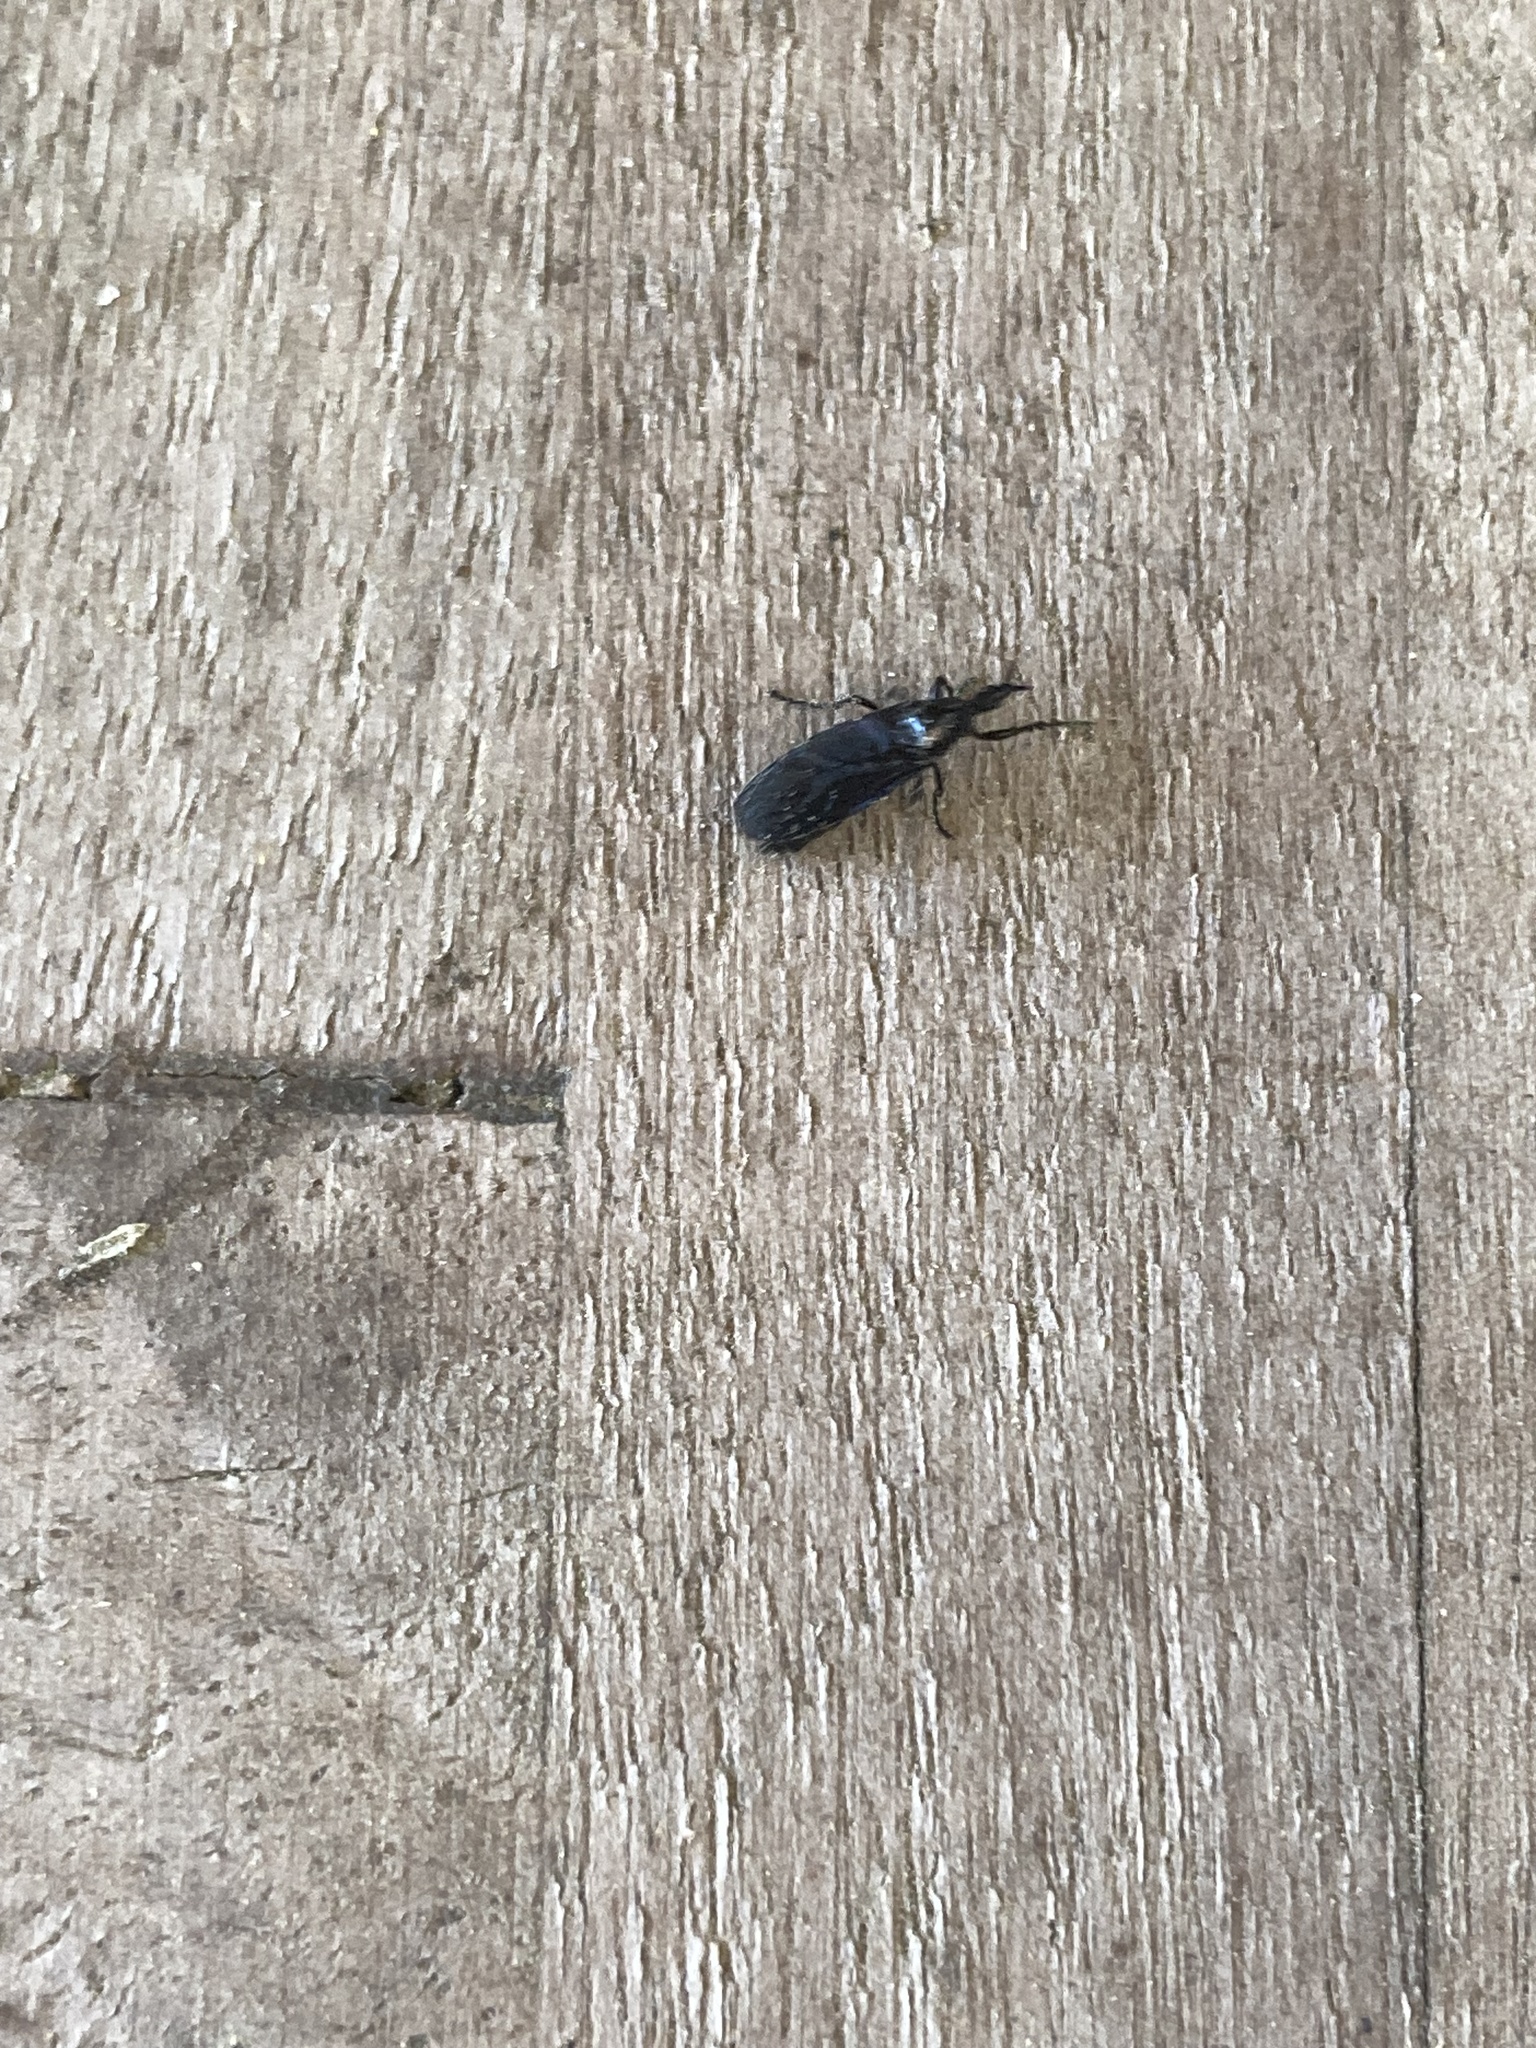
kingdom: Animalia
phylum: Arthropoda
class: Insecta
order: Diptera
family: Bibionidae
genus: Dilophus
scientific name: Dilophus orbatus
